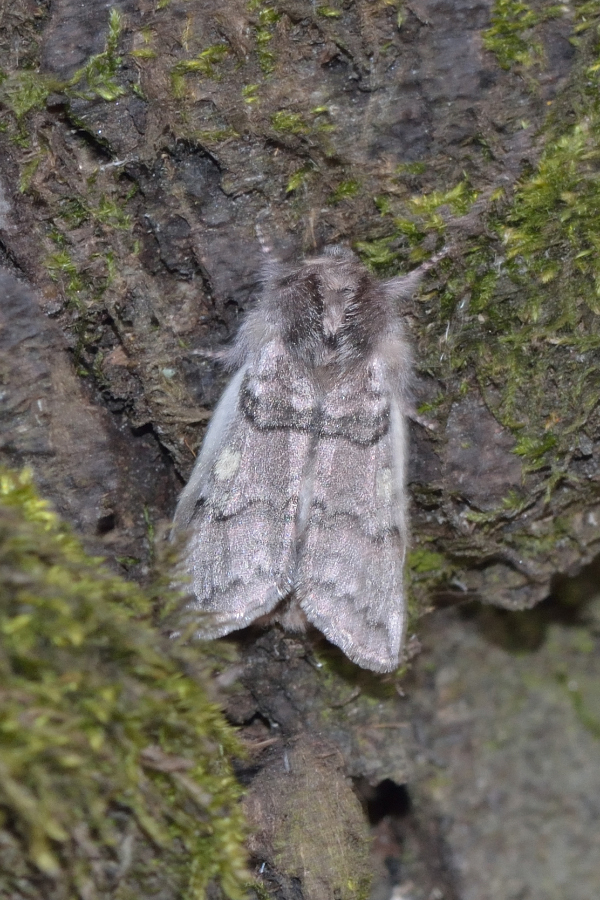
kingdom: Animalia
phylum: Arthropoda
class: Insecta
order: Lepidoptera
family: Drepanidae
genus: Achlya
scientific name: Achlya flavicornis
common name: Yellow horned
